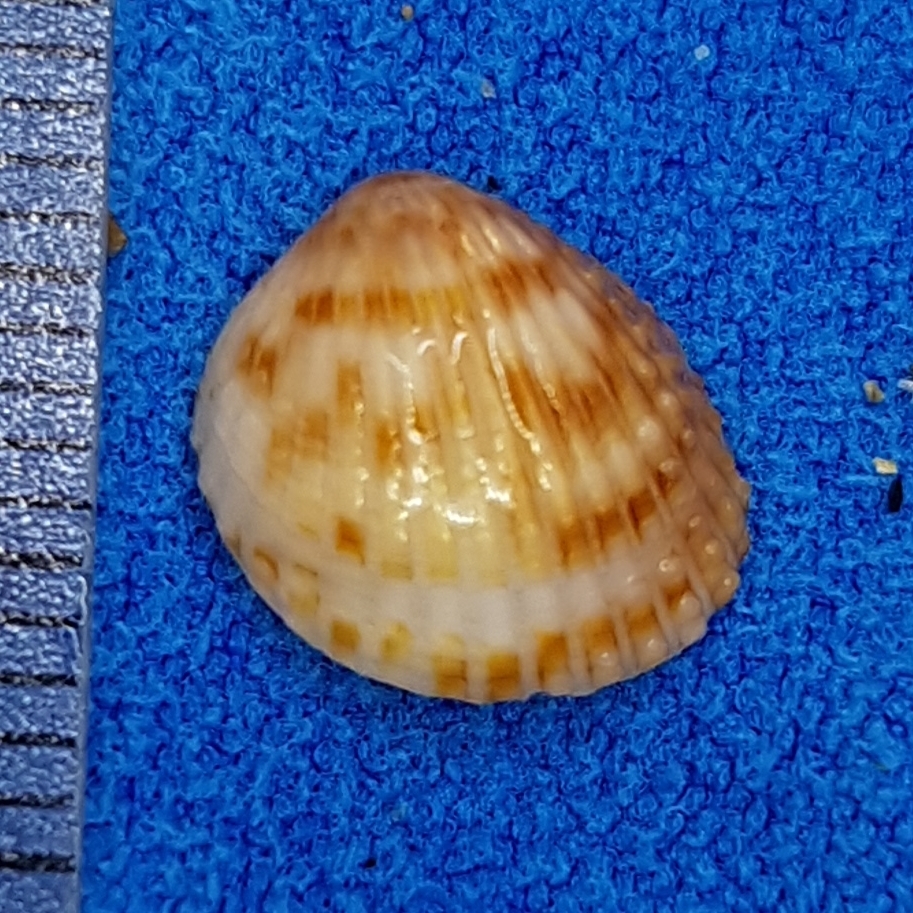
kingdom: Animalia
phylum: Mollusca
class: Bivalvia
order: Cardiida
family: Cardiidae
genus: Papillicardium
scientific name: Papillicardium papillosum
